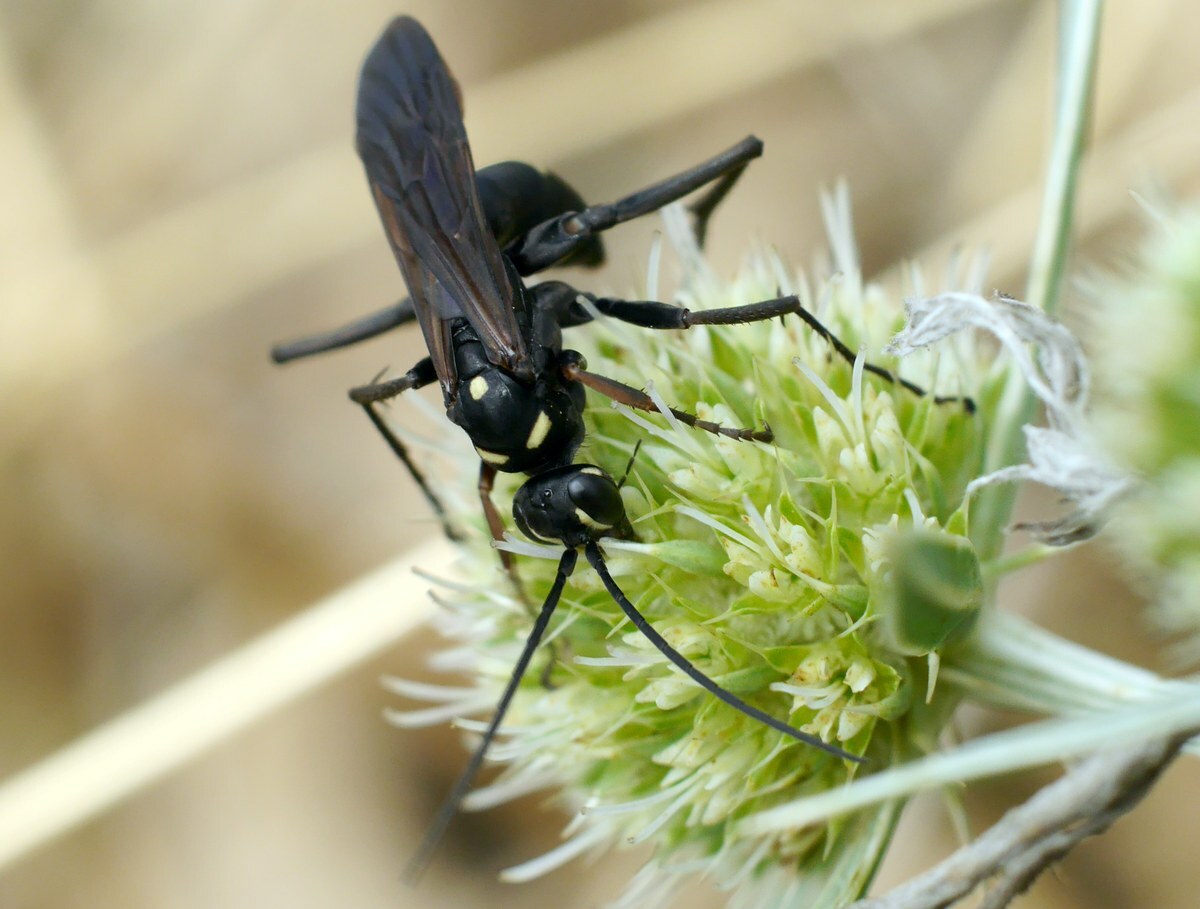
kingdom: Animalia
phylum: Arthropoda
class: Insecta
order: Hymenoptera
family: Pompilidae
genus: Cryptocheilus
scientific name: Cryptocheilus egregius
